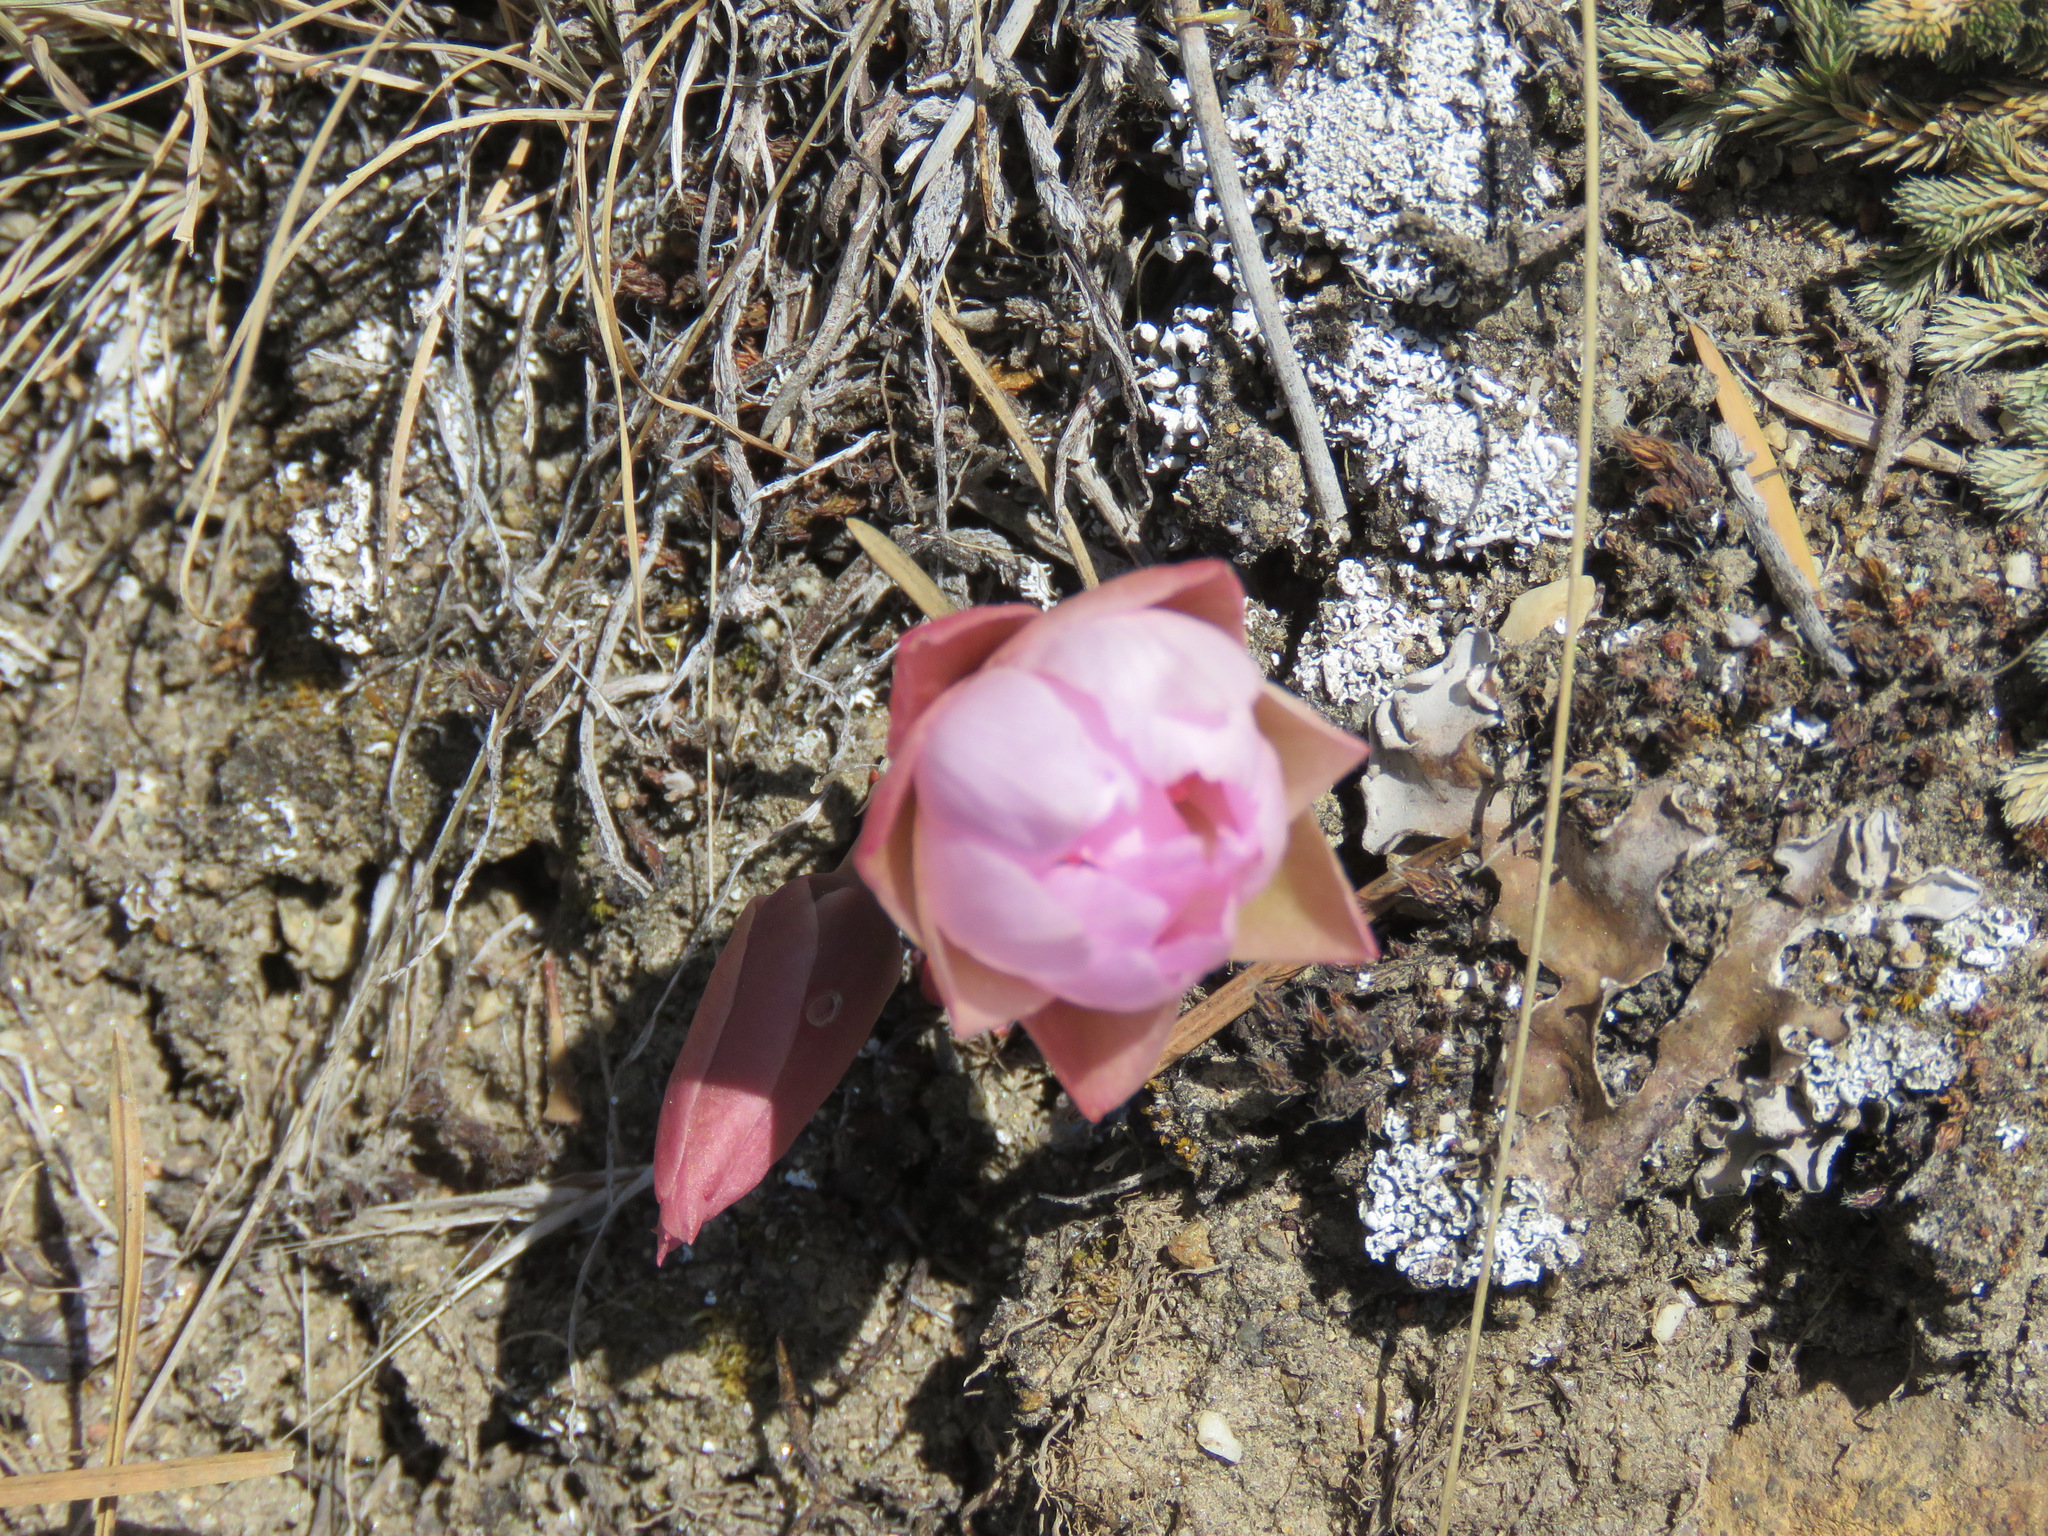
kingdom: Plantae
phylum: Tracheophyta
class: Magnoliopsida
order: Caryophyllales
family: Montiaceae
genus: Lewisia
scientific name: Lewisia rediviva
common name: Bitter-root
